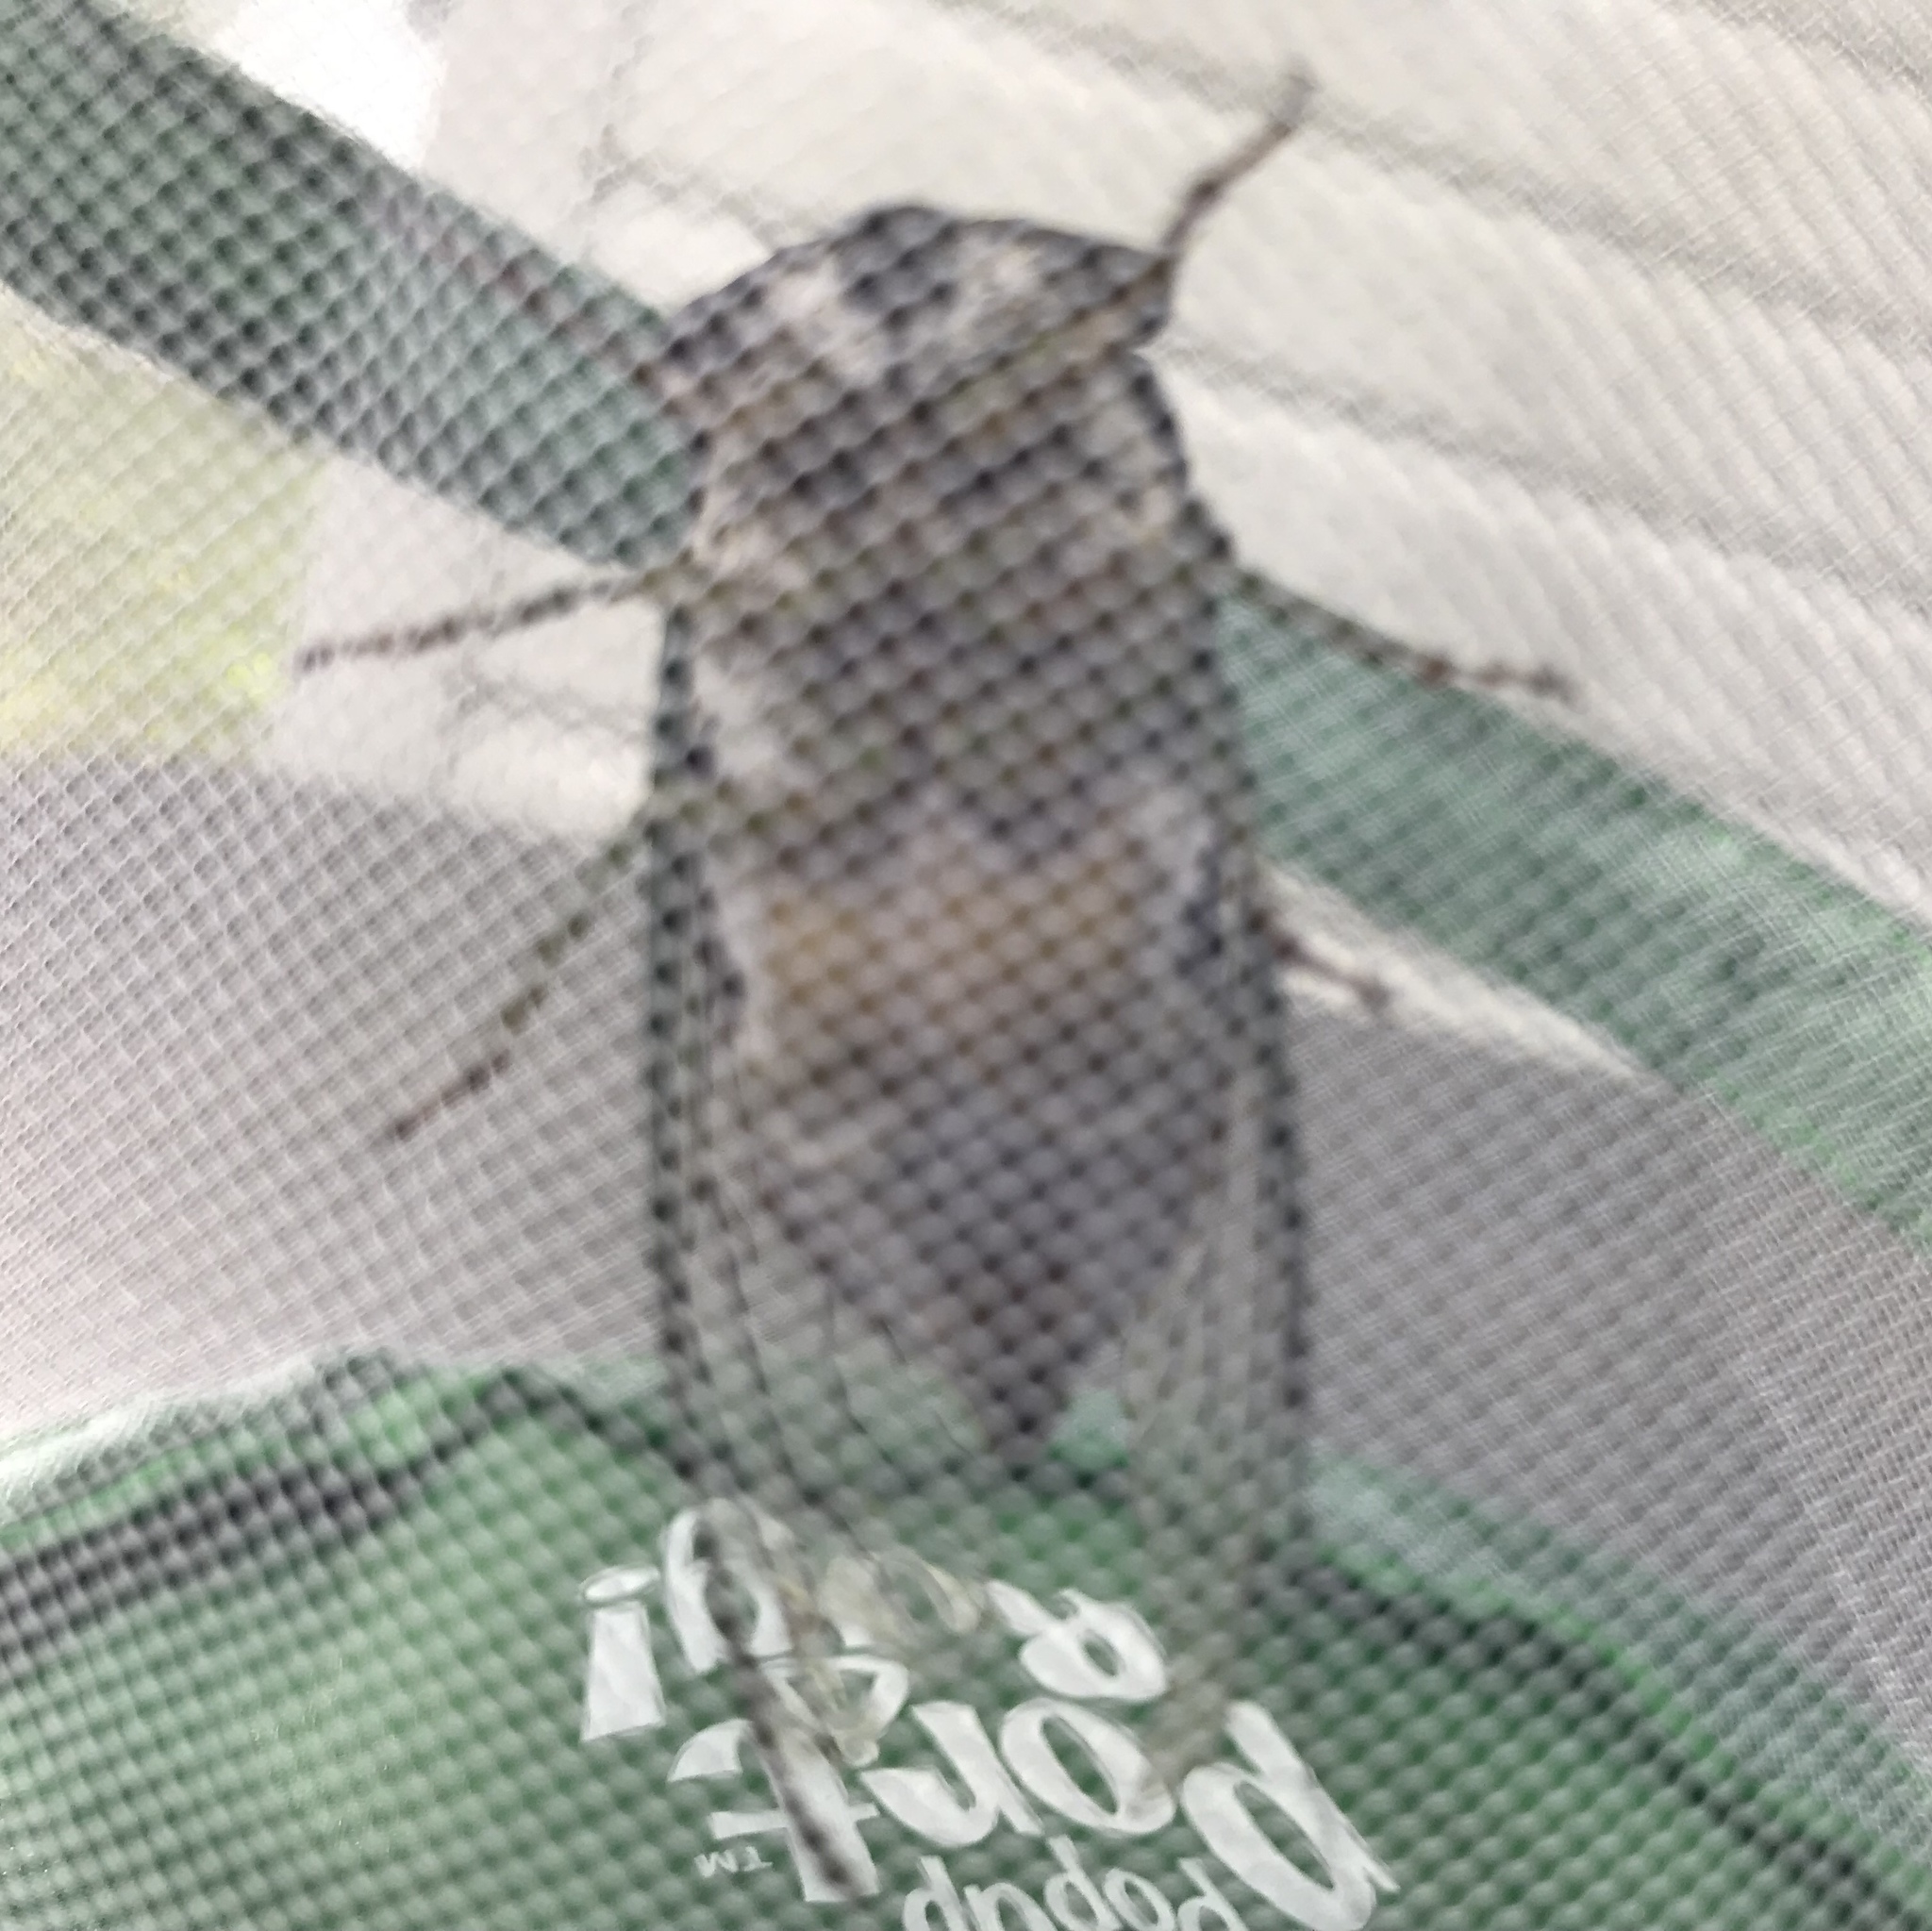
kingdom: Animalia
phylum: Arthropoda
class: Insecta
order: Hemiptera
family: Cicadidae
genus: Neotibicen
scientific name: Neotibicen tibicen
